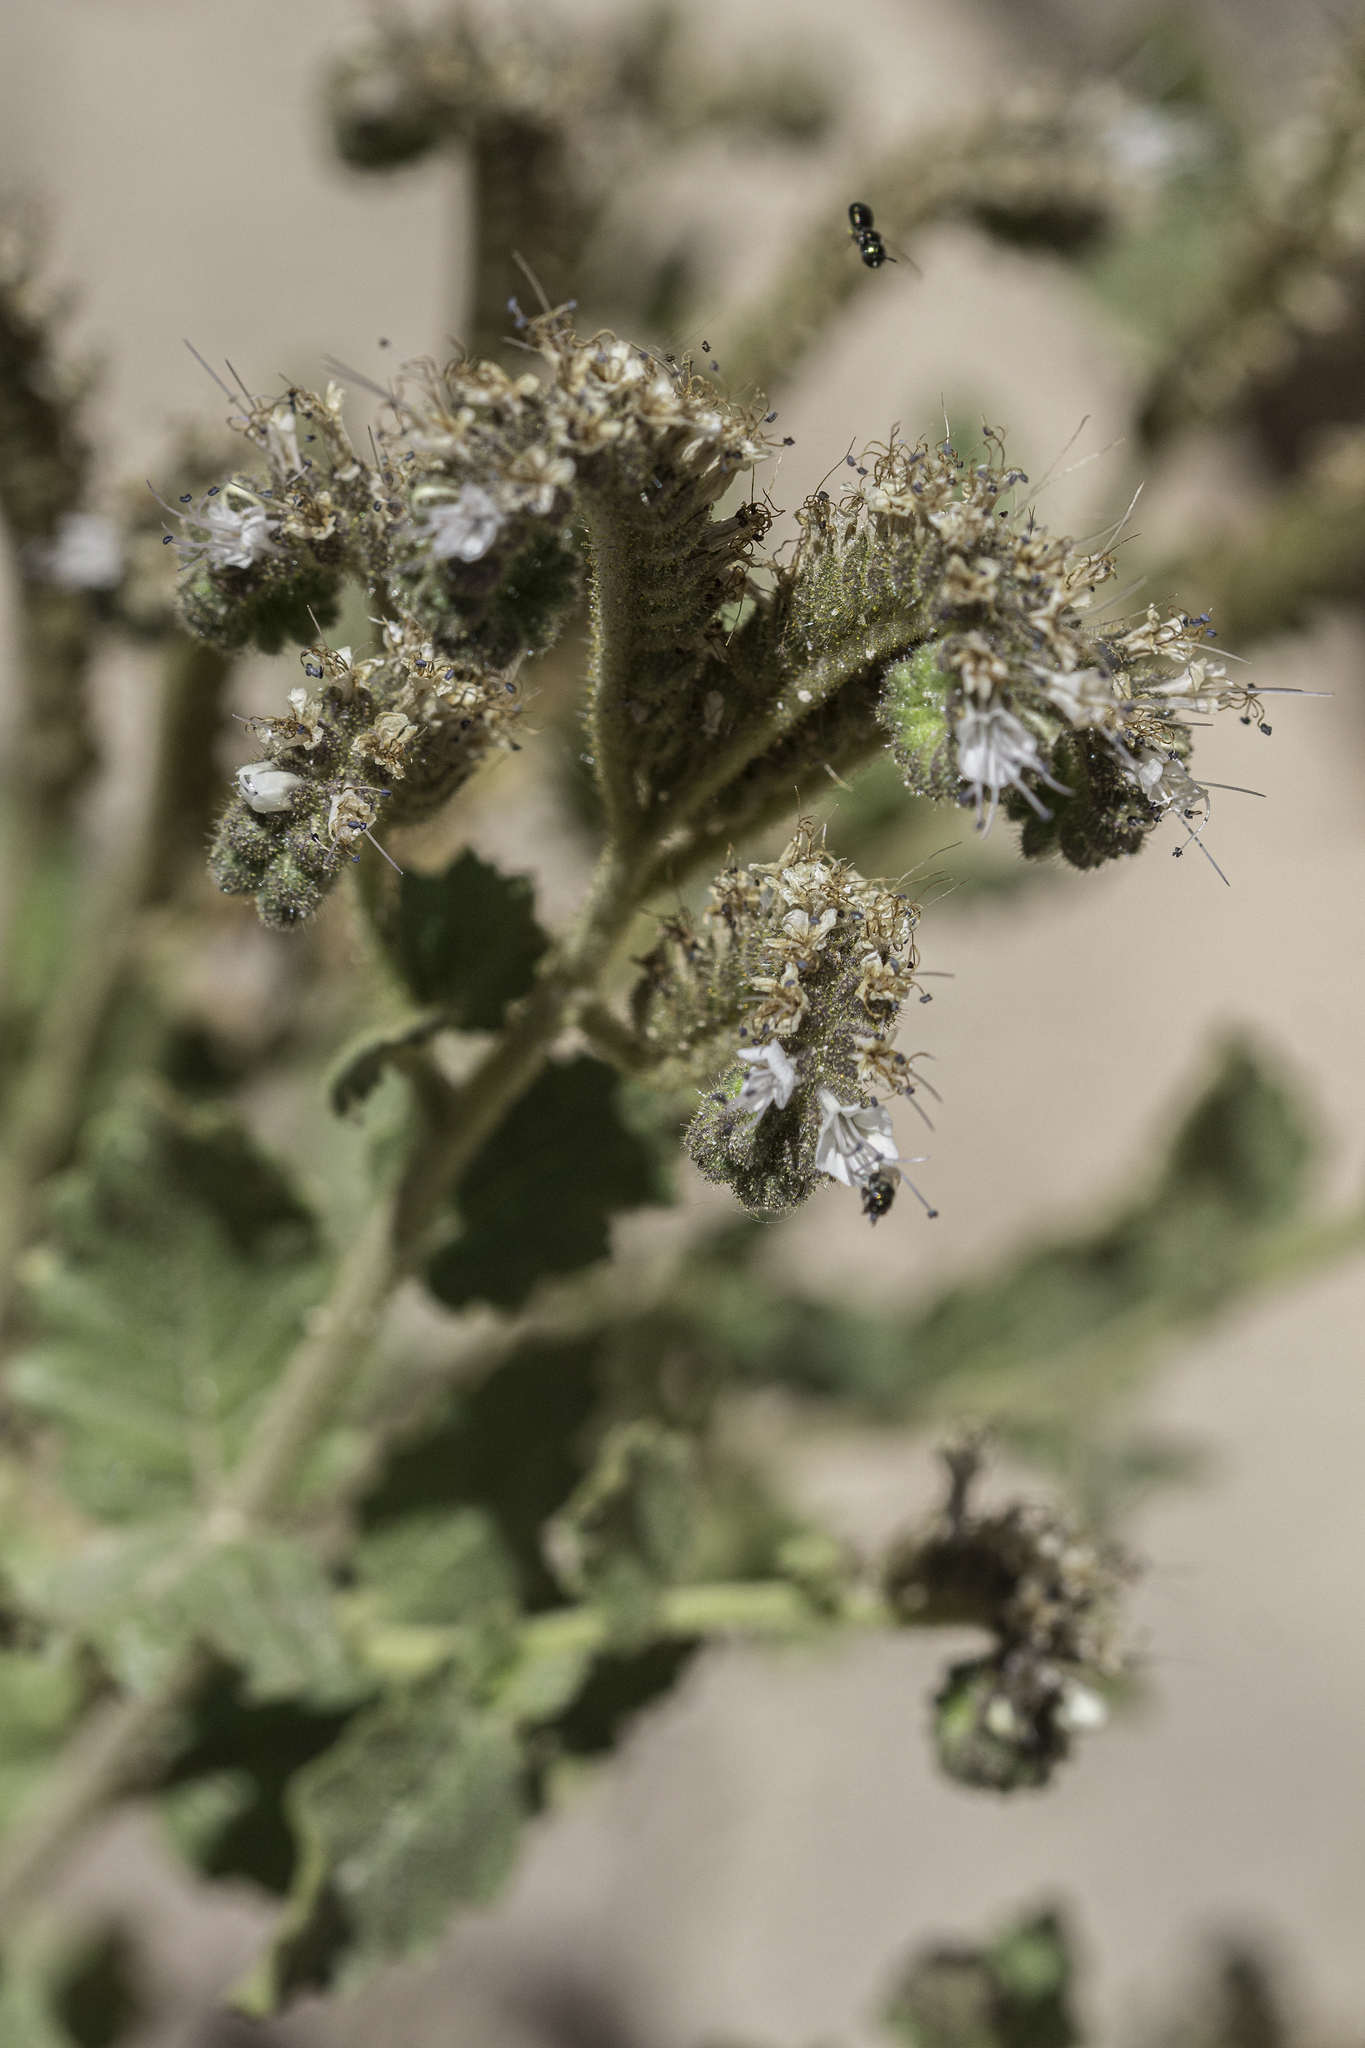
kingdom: Plantae
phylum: Tracheophyta
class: Magnoliopsida
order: Boraginales
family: Hydrophyllaceae
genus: Phacelia
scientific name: Phacelia pinkavae
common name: Pinkava's phacelia
